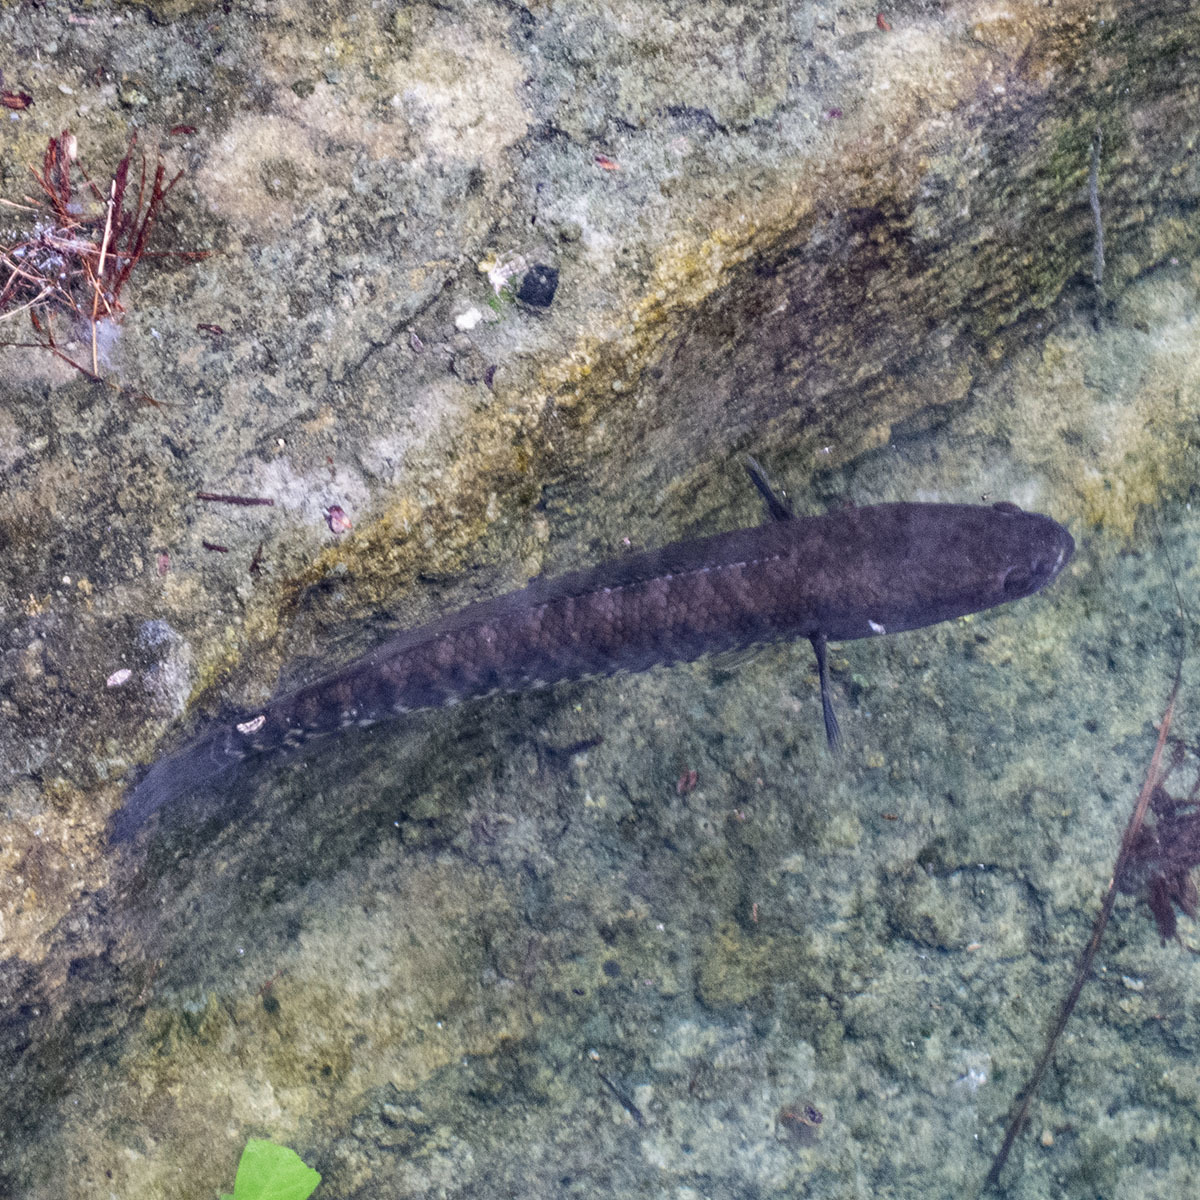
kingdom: Animalia
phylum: Chordata
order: Perciformes
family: Channidae
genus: Channa
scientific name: Channa striata
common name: Striped snakehead
